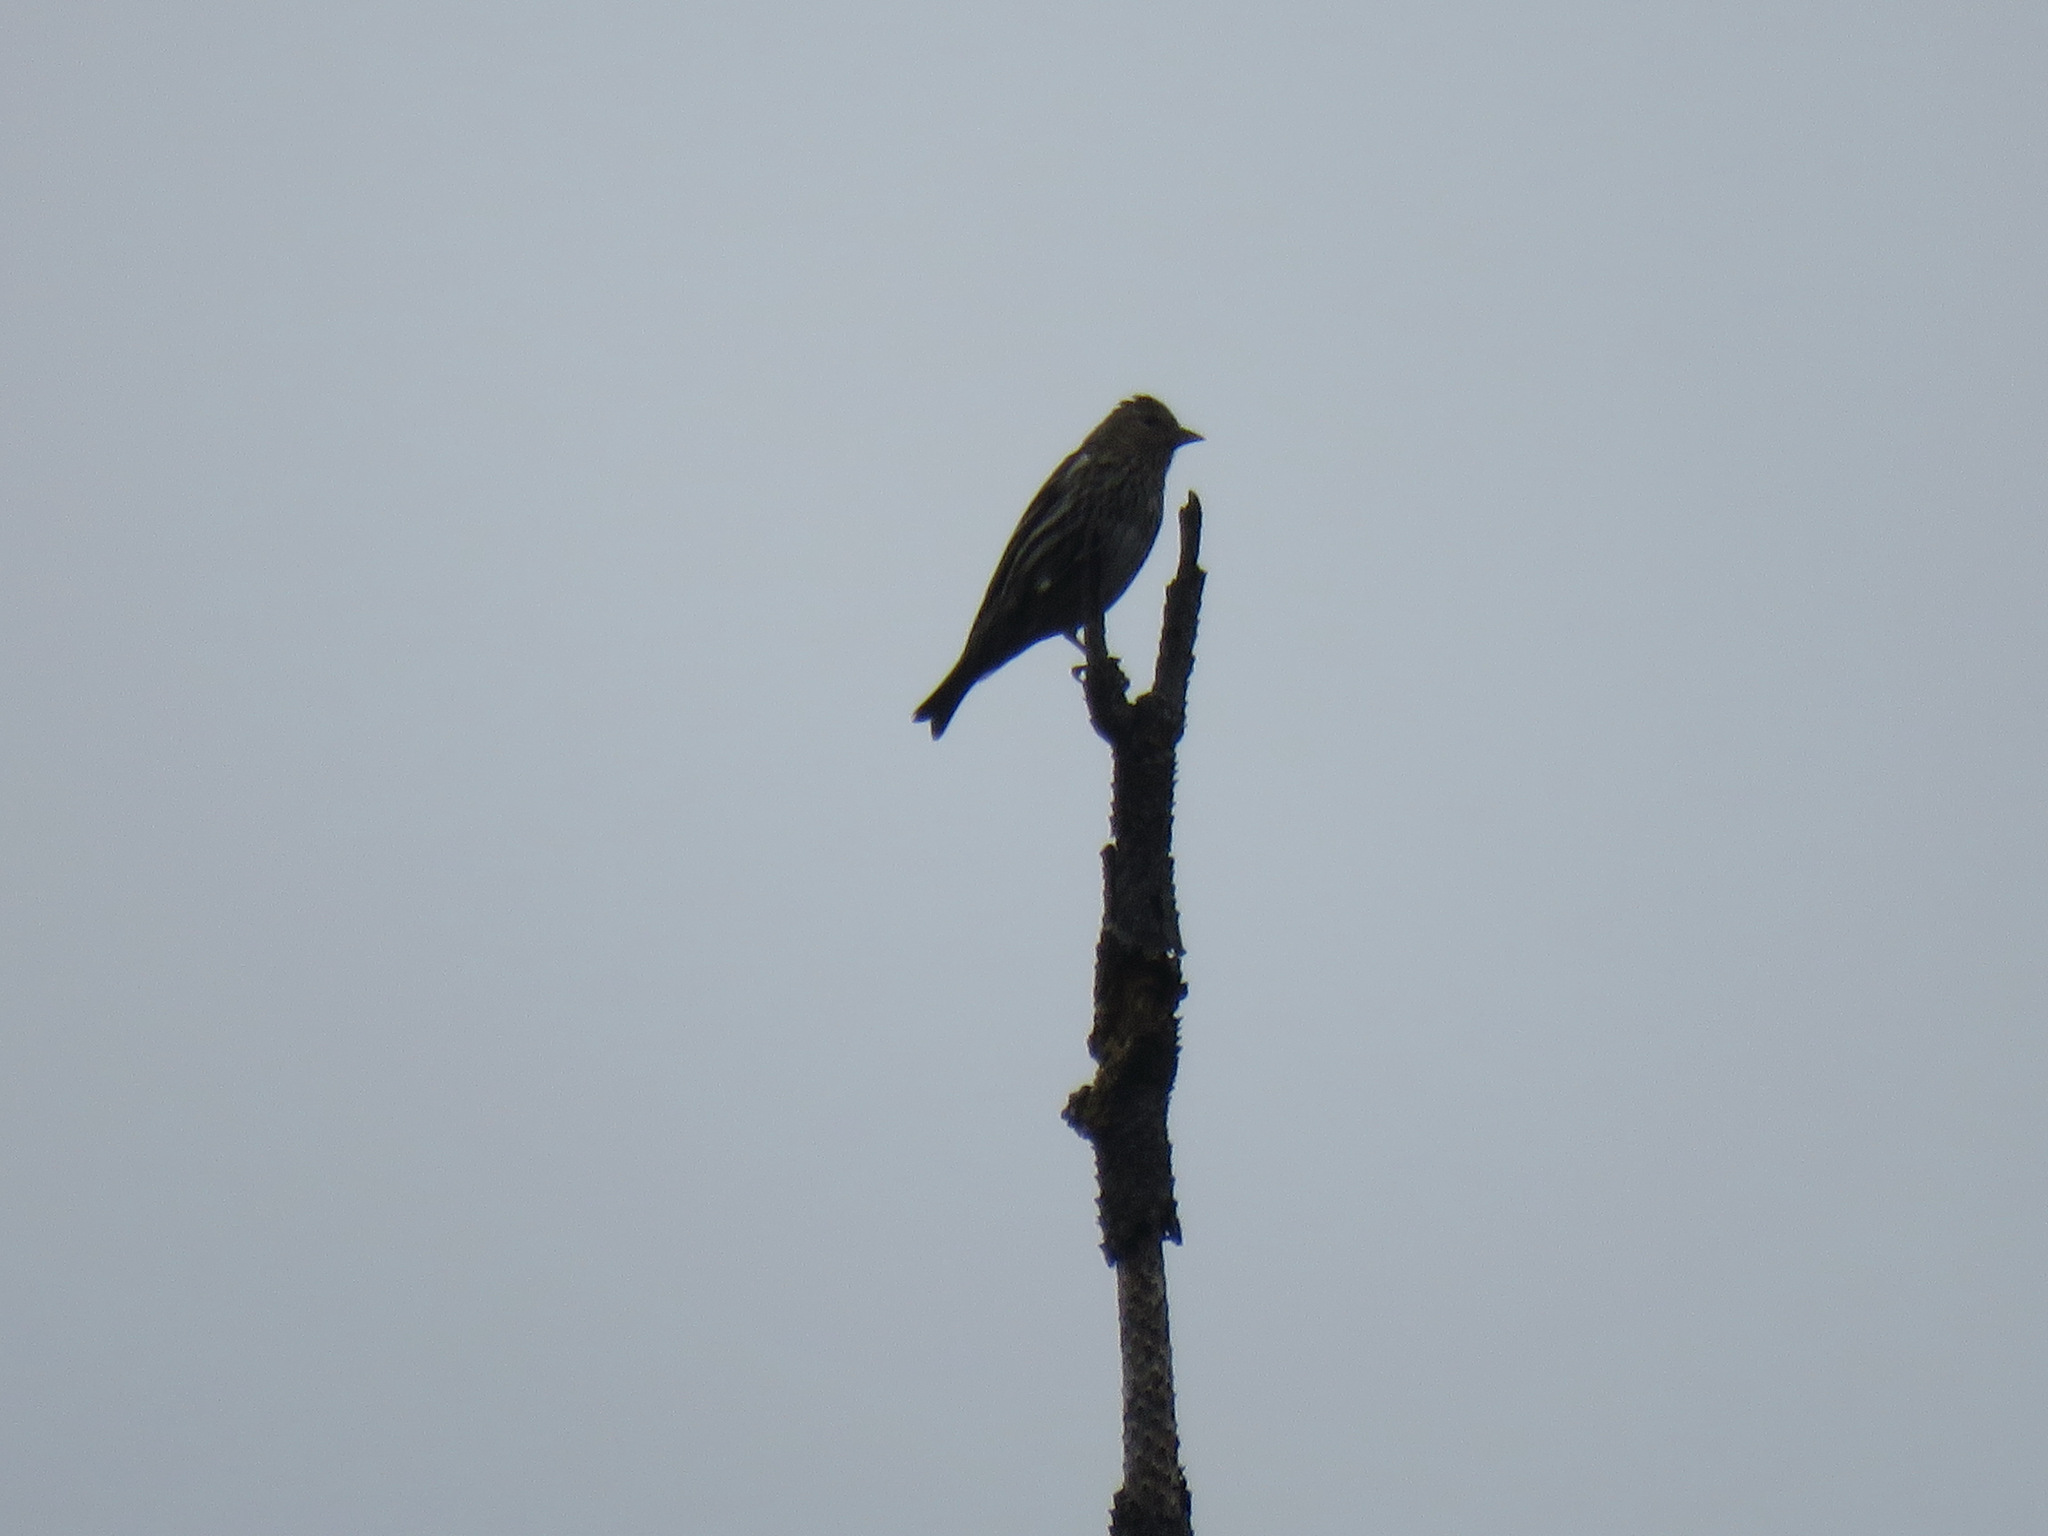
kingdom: Animalia
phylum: Chordata
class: Aves
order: Passeriformes
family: Fringillidae
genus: Spinus
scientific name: Spinus pinus
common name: Pine siskin
